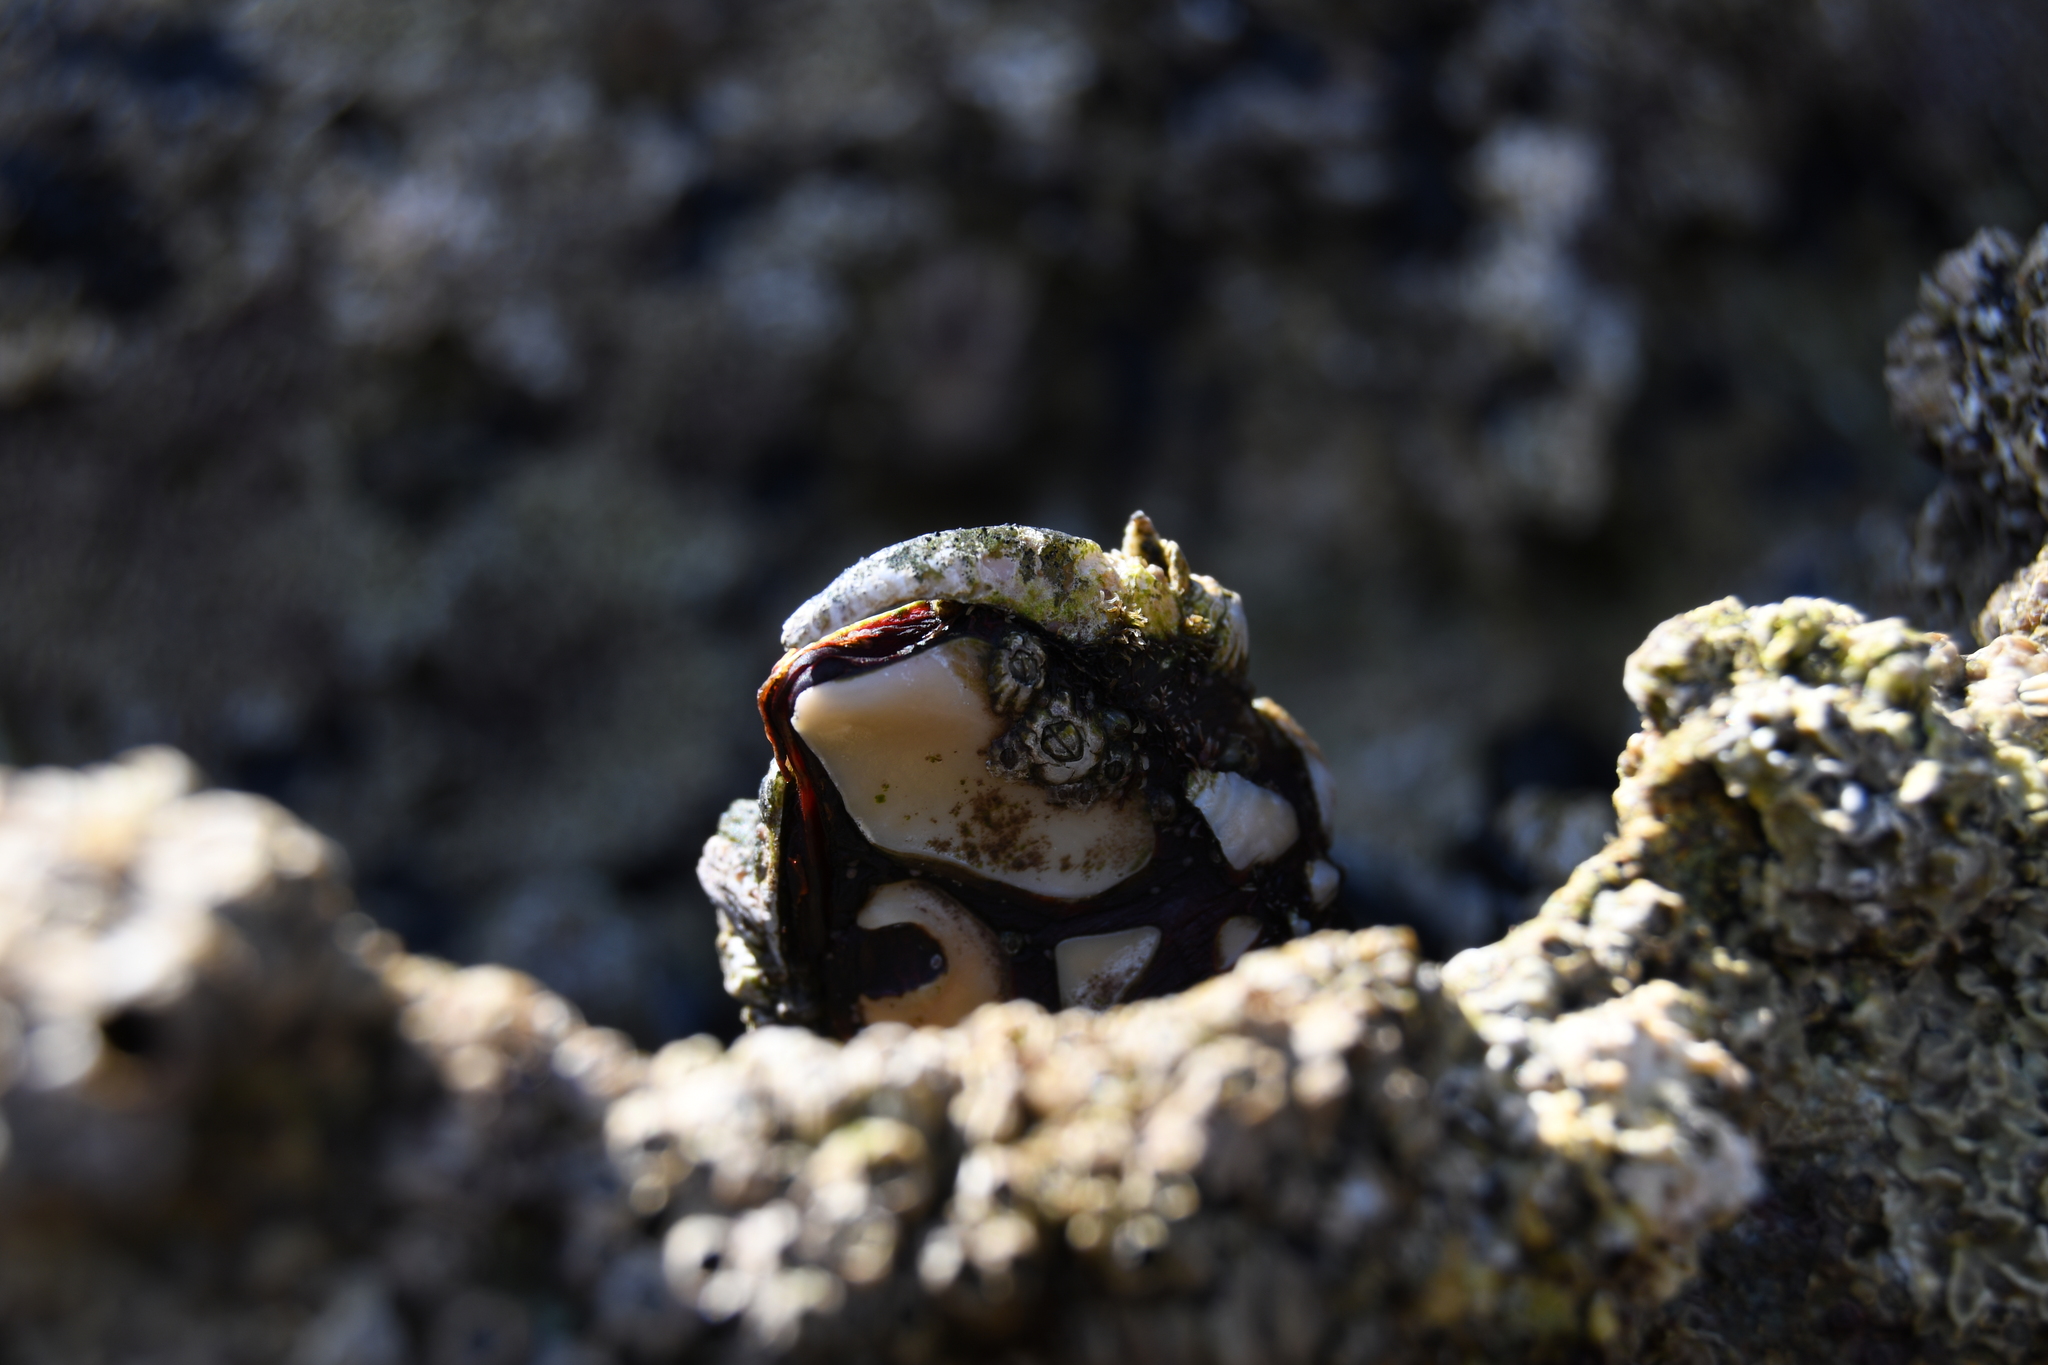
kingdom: Animalia
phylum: Arthropoda
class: Maxillopoda
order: Pedunculata
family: Pollicipedidae
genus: Pollicipes
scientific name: Pollicipes pollicipes
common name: Gooseneck barnacle
